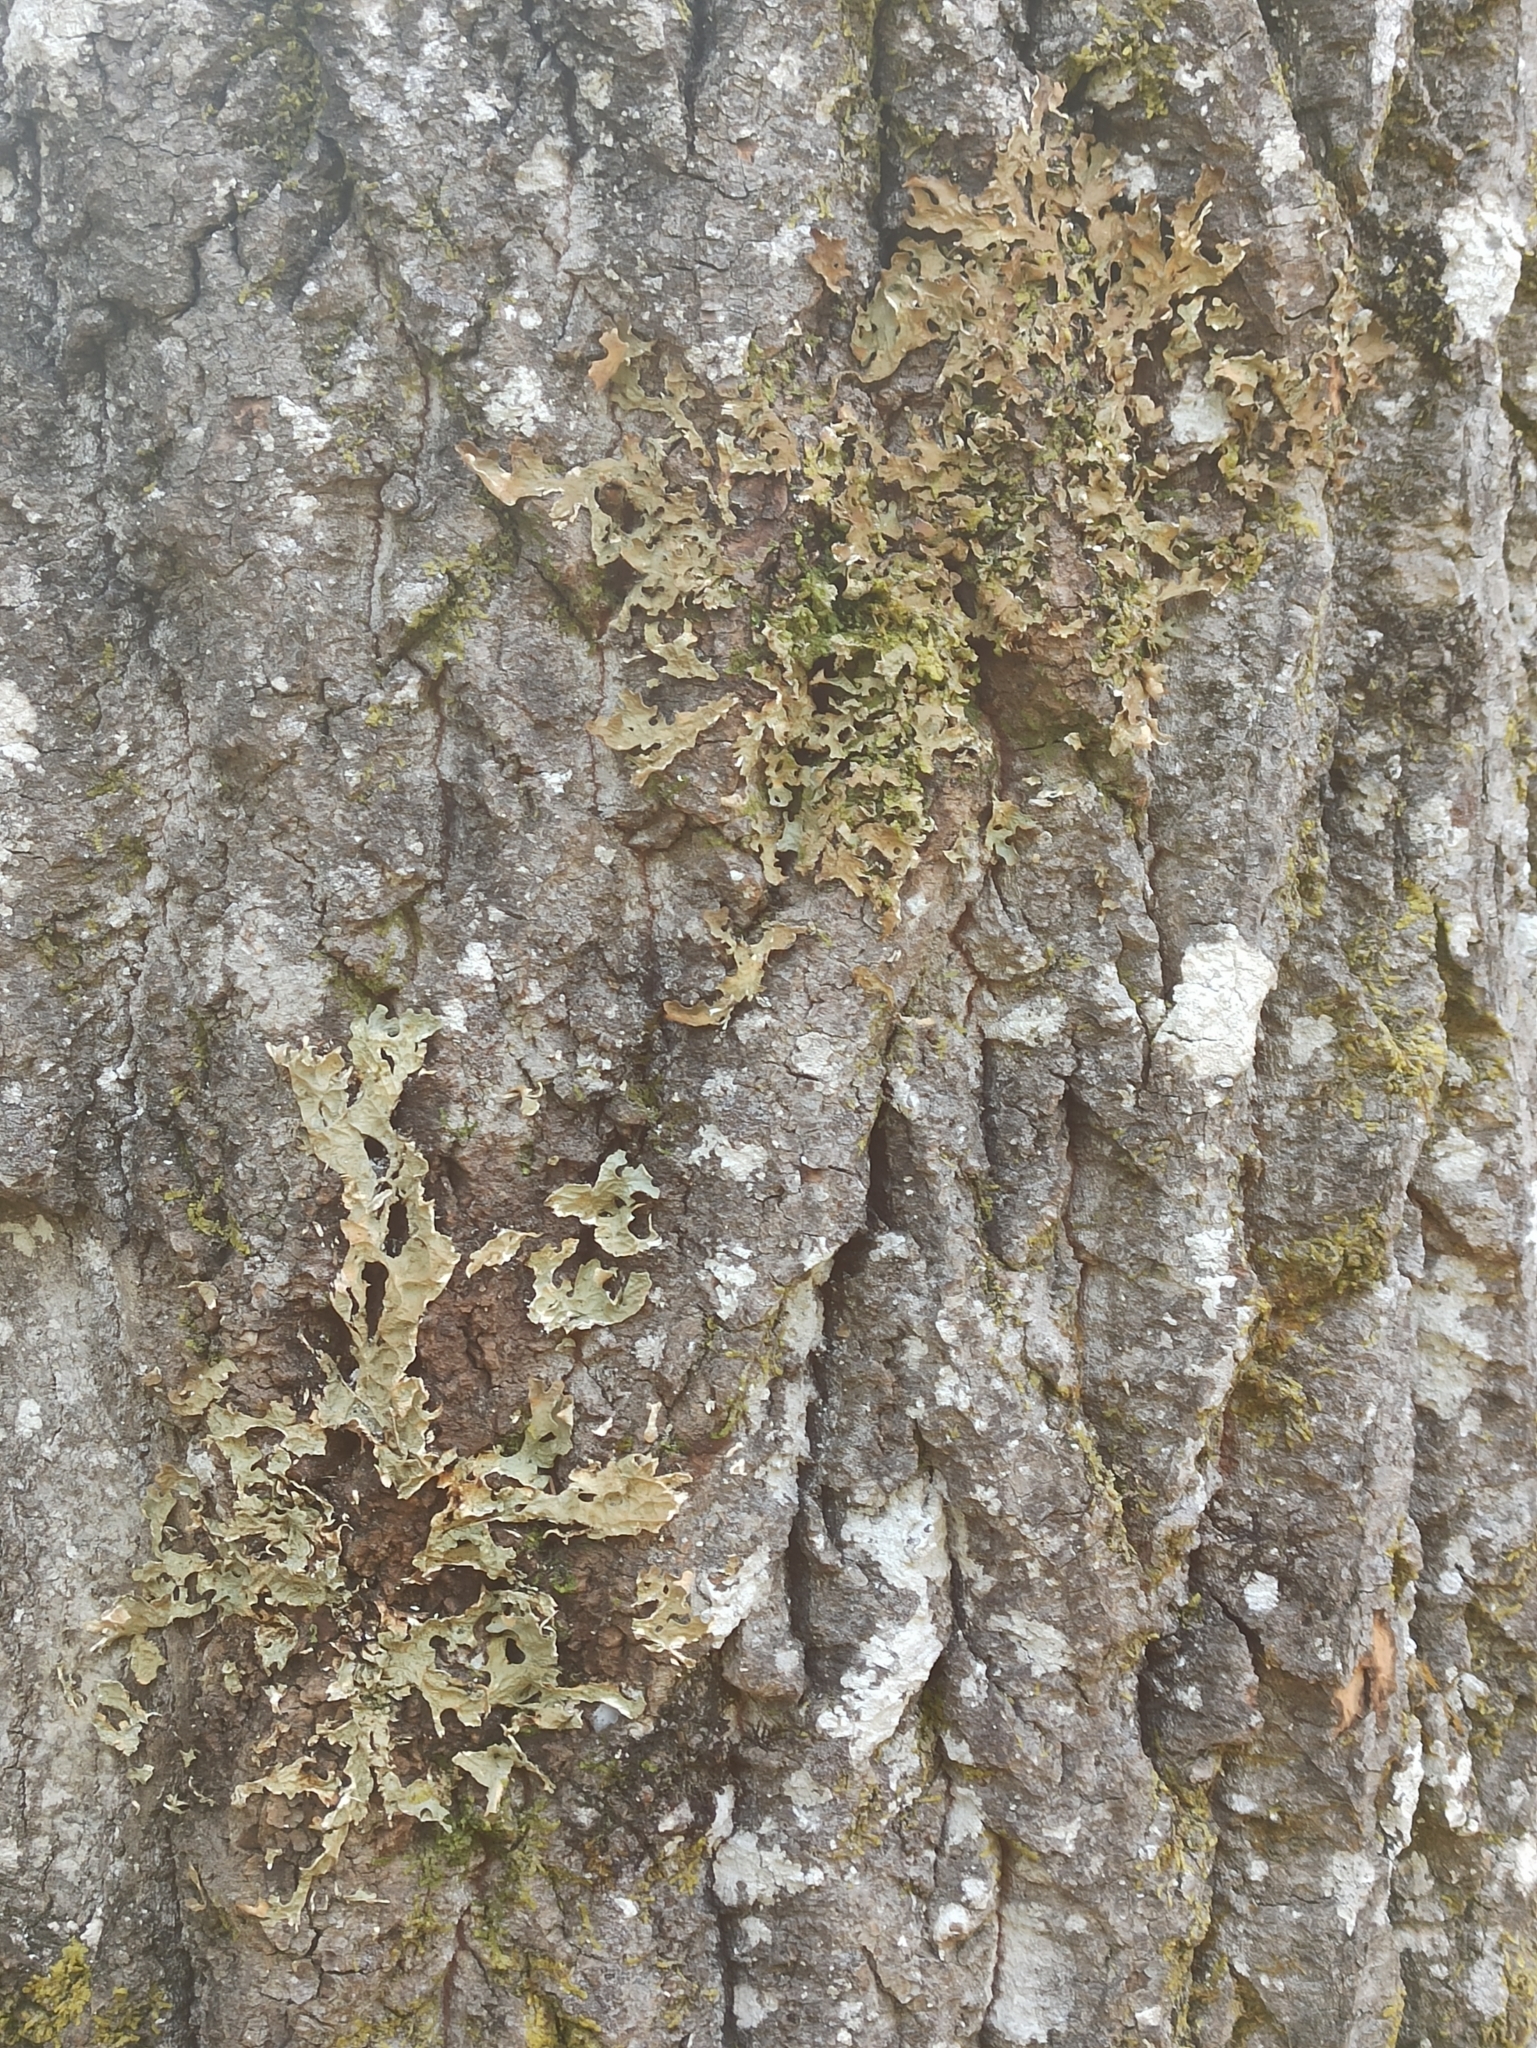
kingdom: Fungi
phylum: Ascomycota
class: Lecanoromycetes
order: Peltigerales
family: Lobariaceae
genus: Lobaria
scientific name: Lobaria pulmonaria
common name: Lungwort
